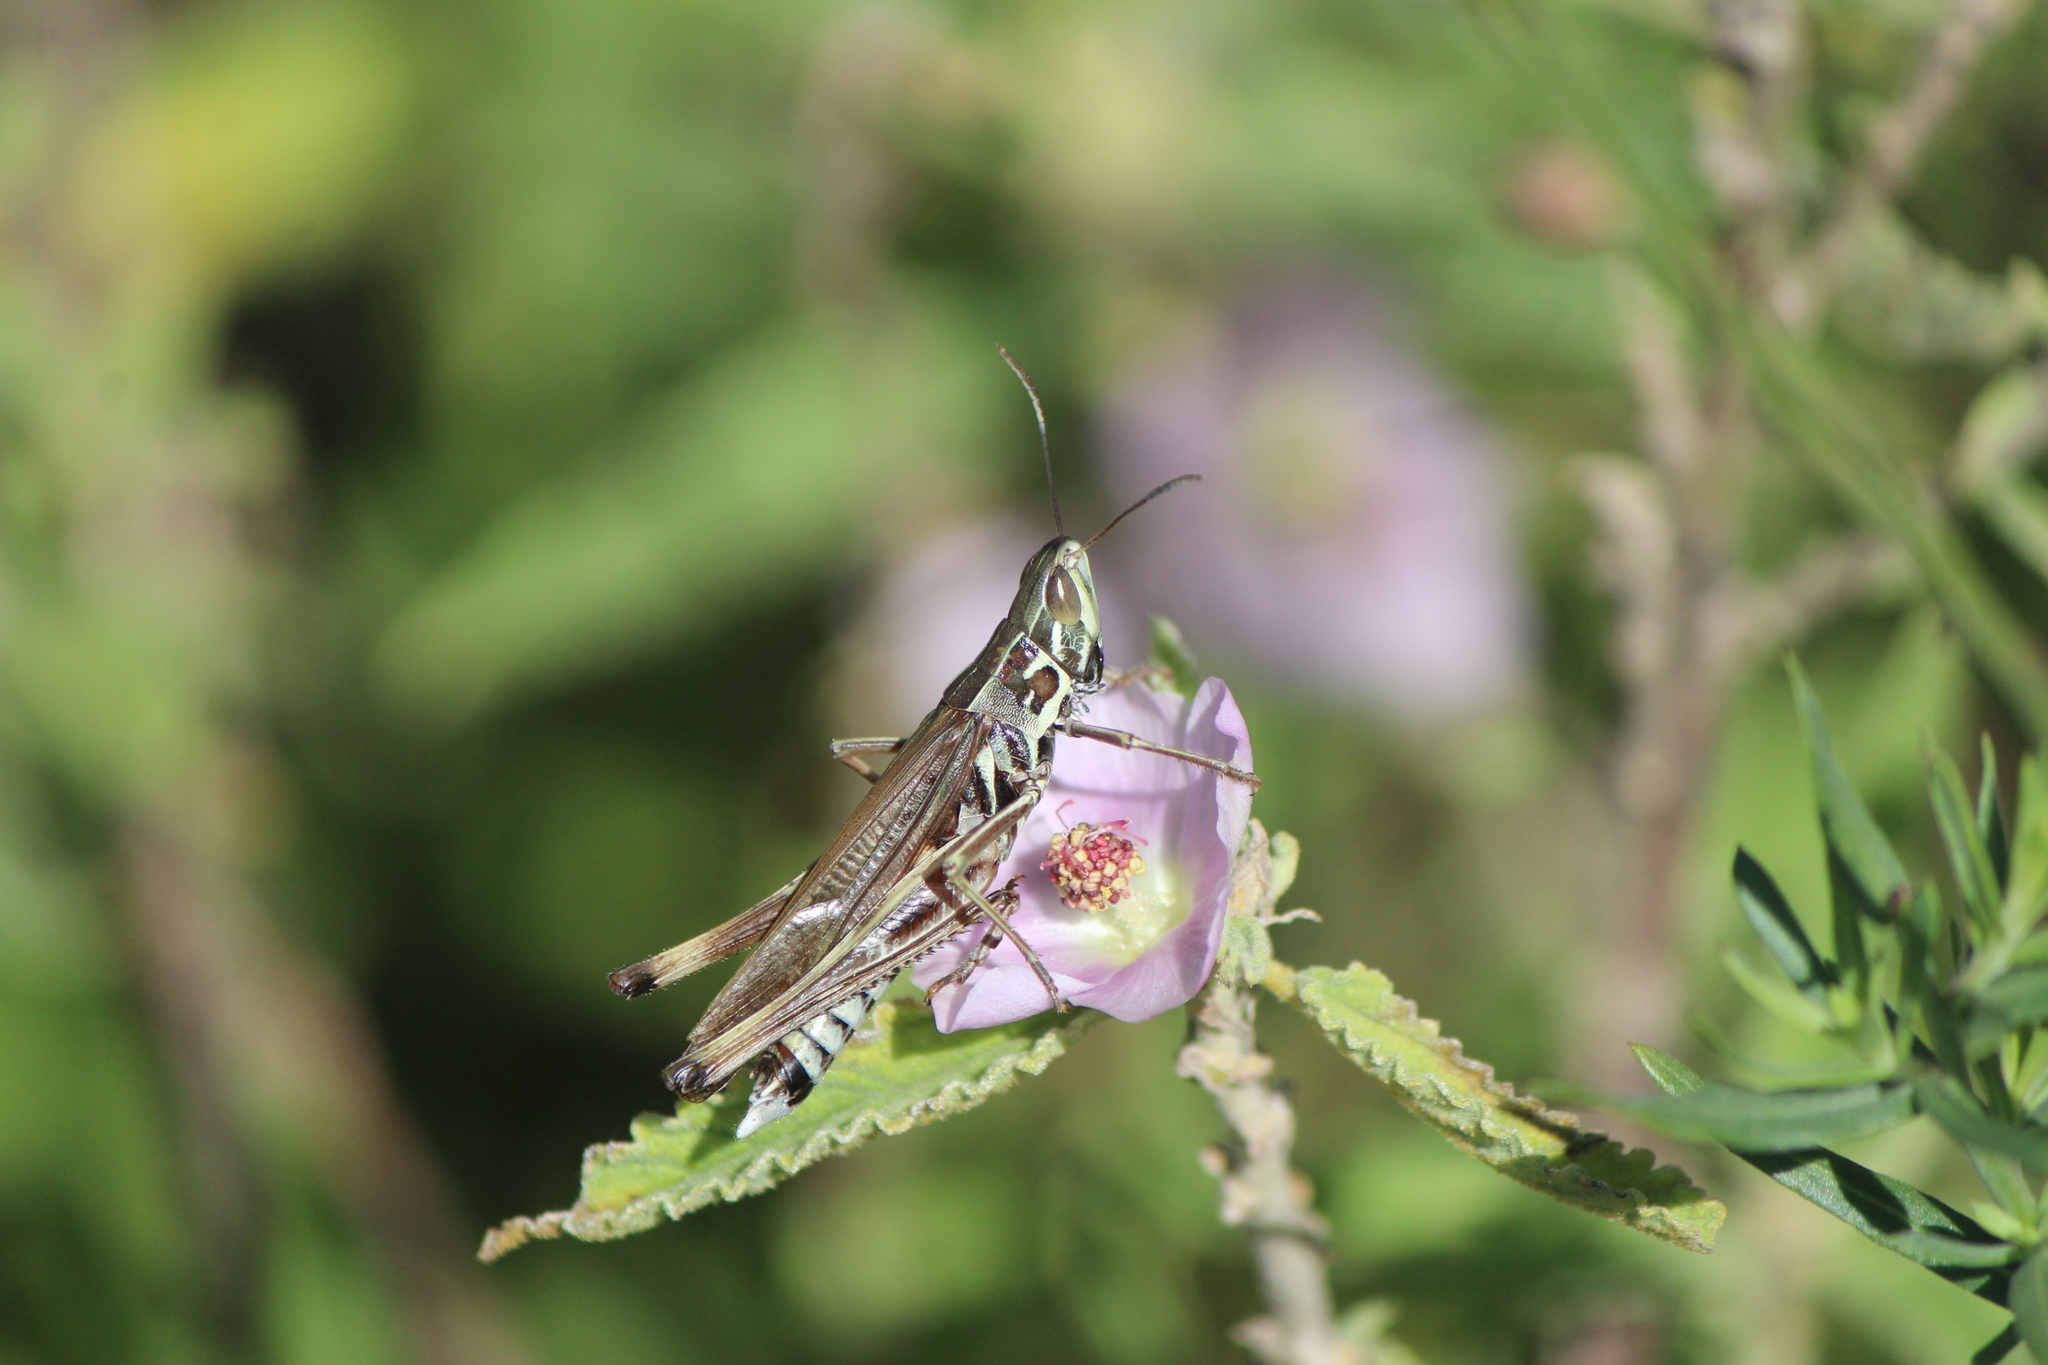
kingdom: Animalia
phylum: Arthropoda
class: Insecta
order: Orthoptera
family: Acrididae
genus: Syrbula
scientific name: Syrbula admirabilis
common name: Handsome grasshopper
